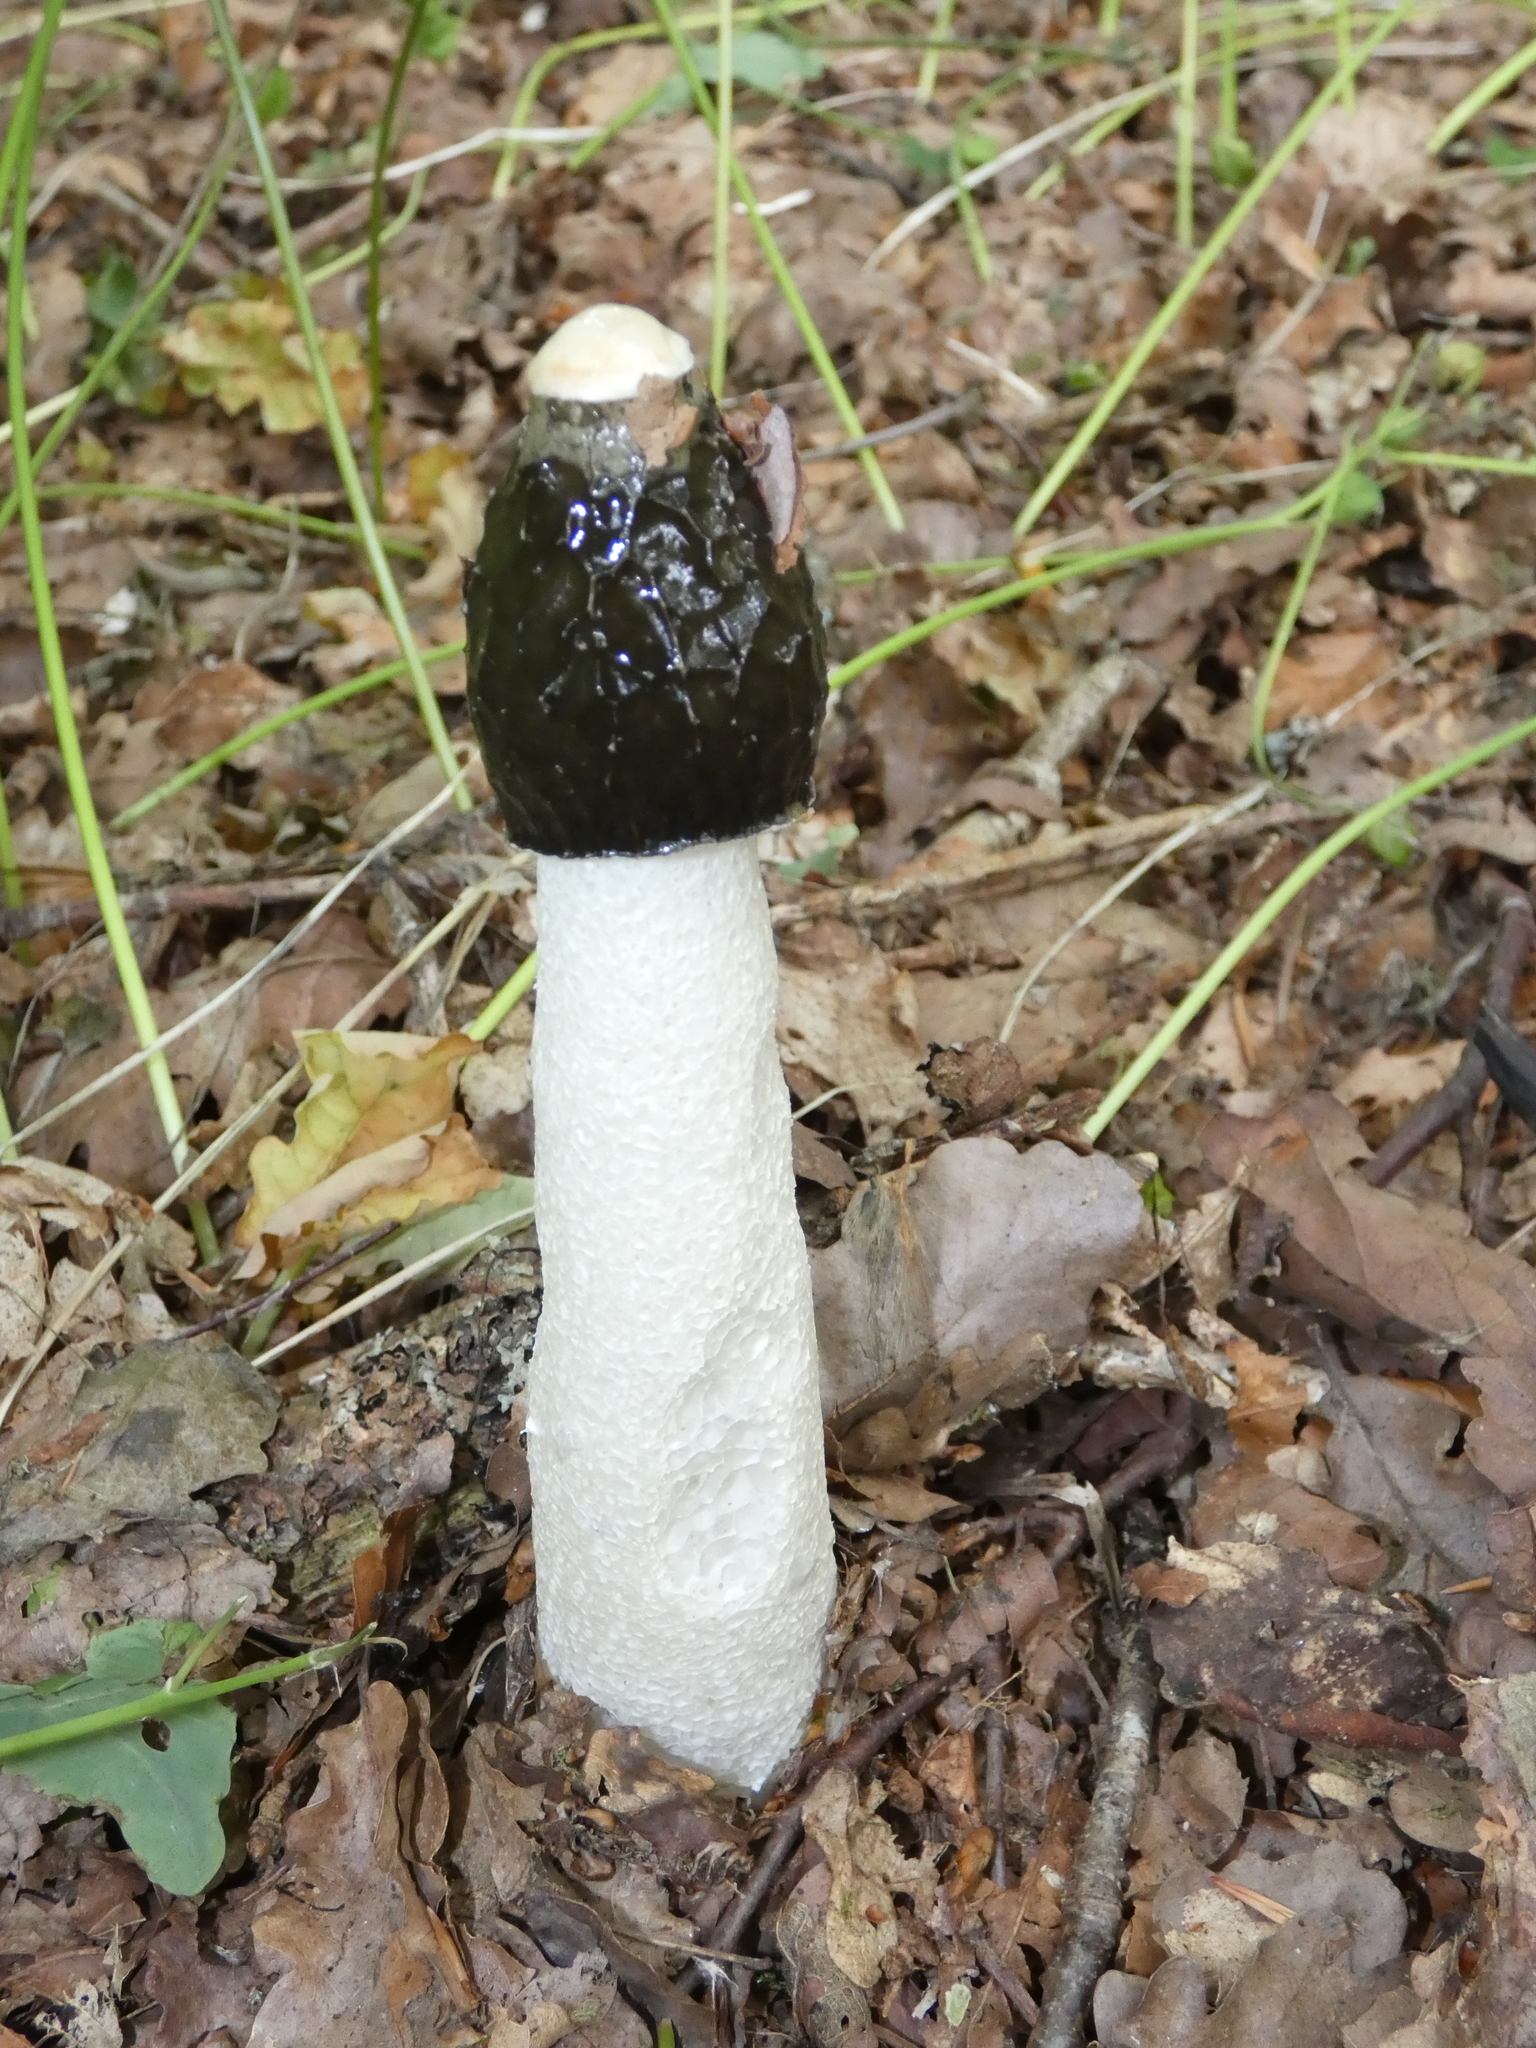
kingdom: Fungi
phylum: Basidiomycota
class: Agaricomycetes
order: Phallales
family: Phallaceae
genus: Phallus
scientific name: Phallus impudicus
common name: Common stinkhorn
